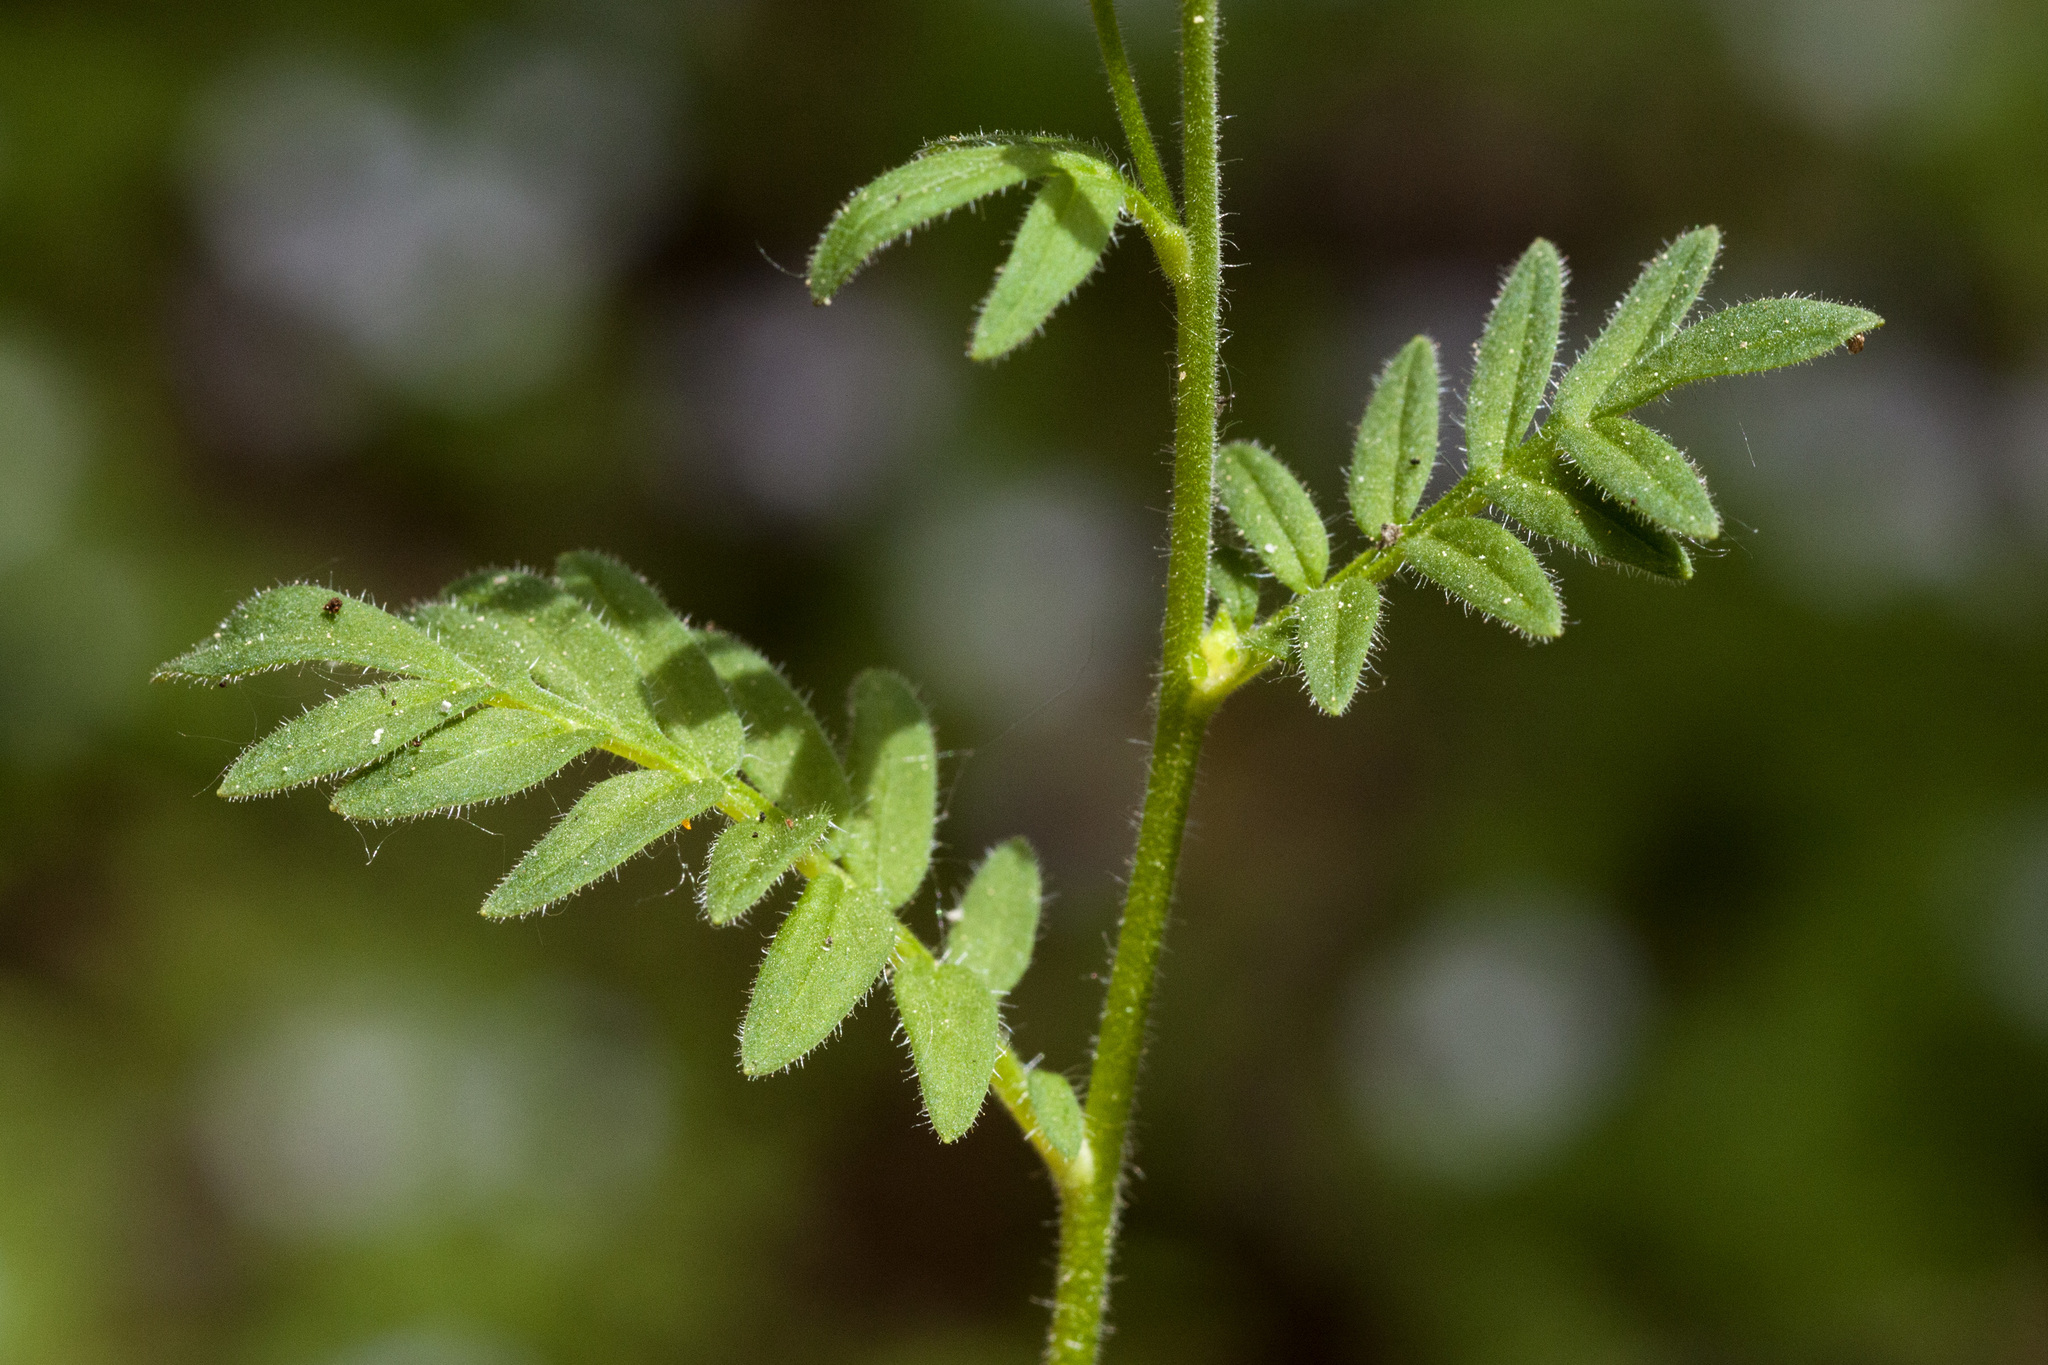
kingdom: Plantae
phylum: Tracheophyta
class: Magnoliopsida
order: Ericales
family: Polemoniaceae
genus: Polemonium
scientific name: Polemonium pulcherrimum
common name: Short jacob's-ladder
